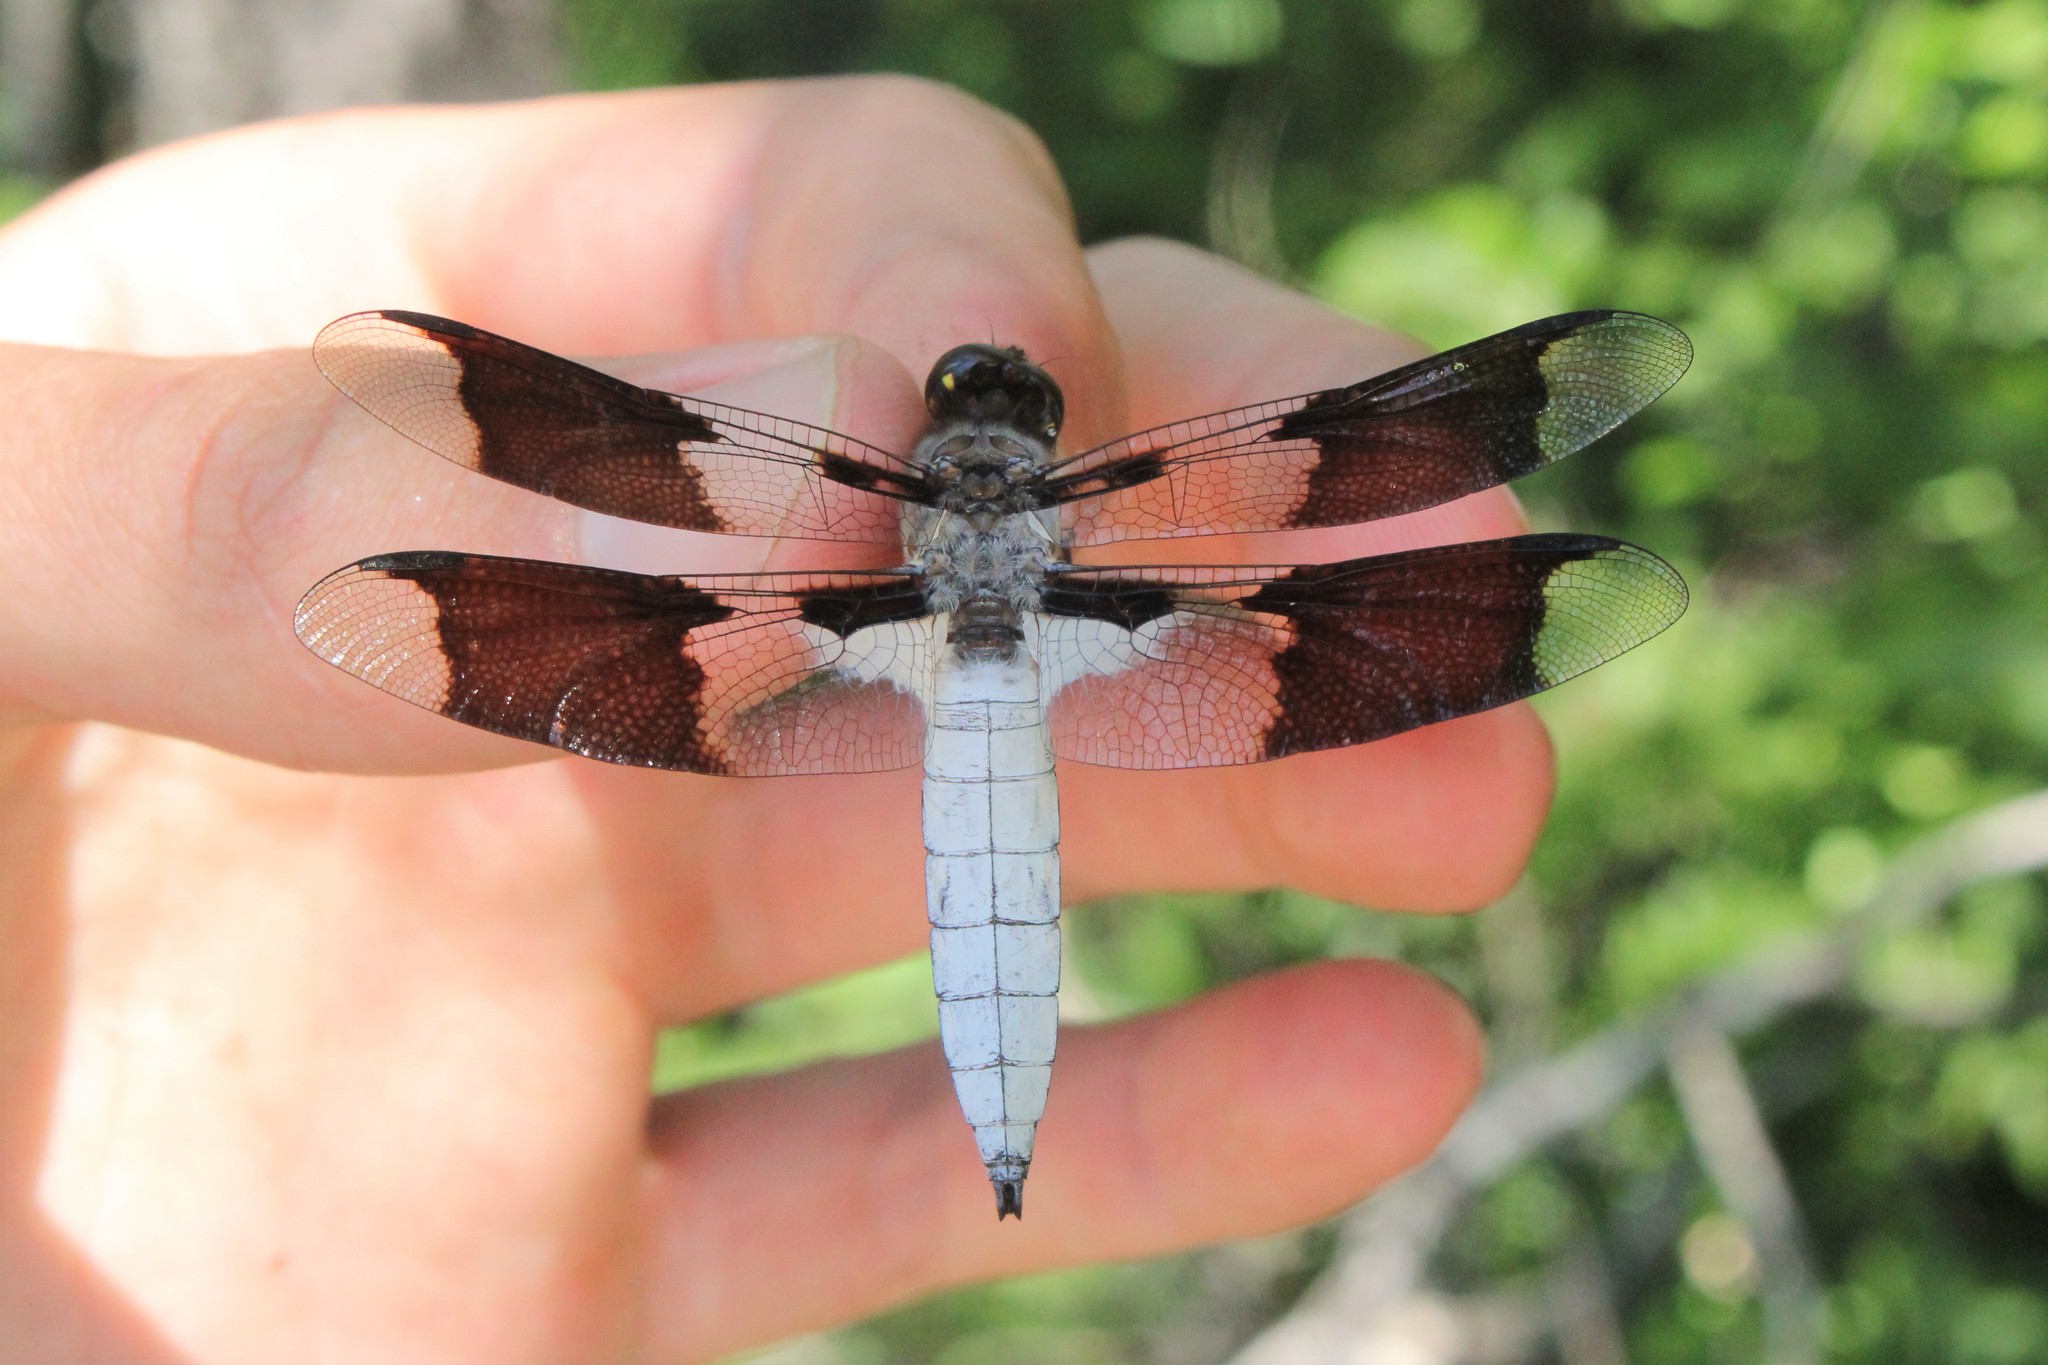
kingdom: Animalia
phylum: Arthropoda
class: Insecta
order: Odonata
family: Libellulidae
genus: Plathemis
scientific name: Plathemis lydia
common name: Common whitetail
